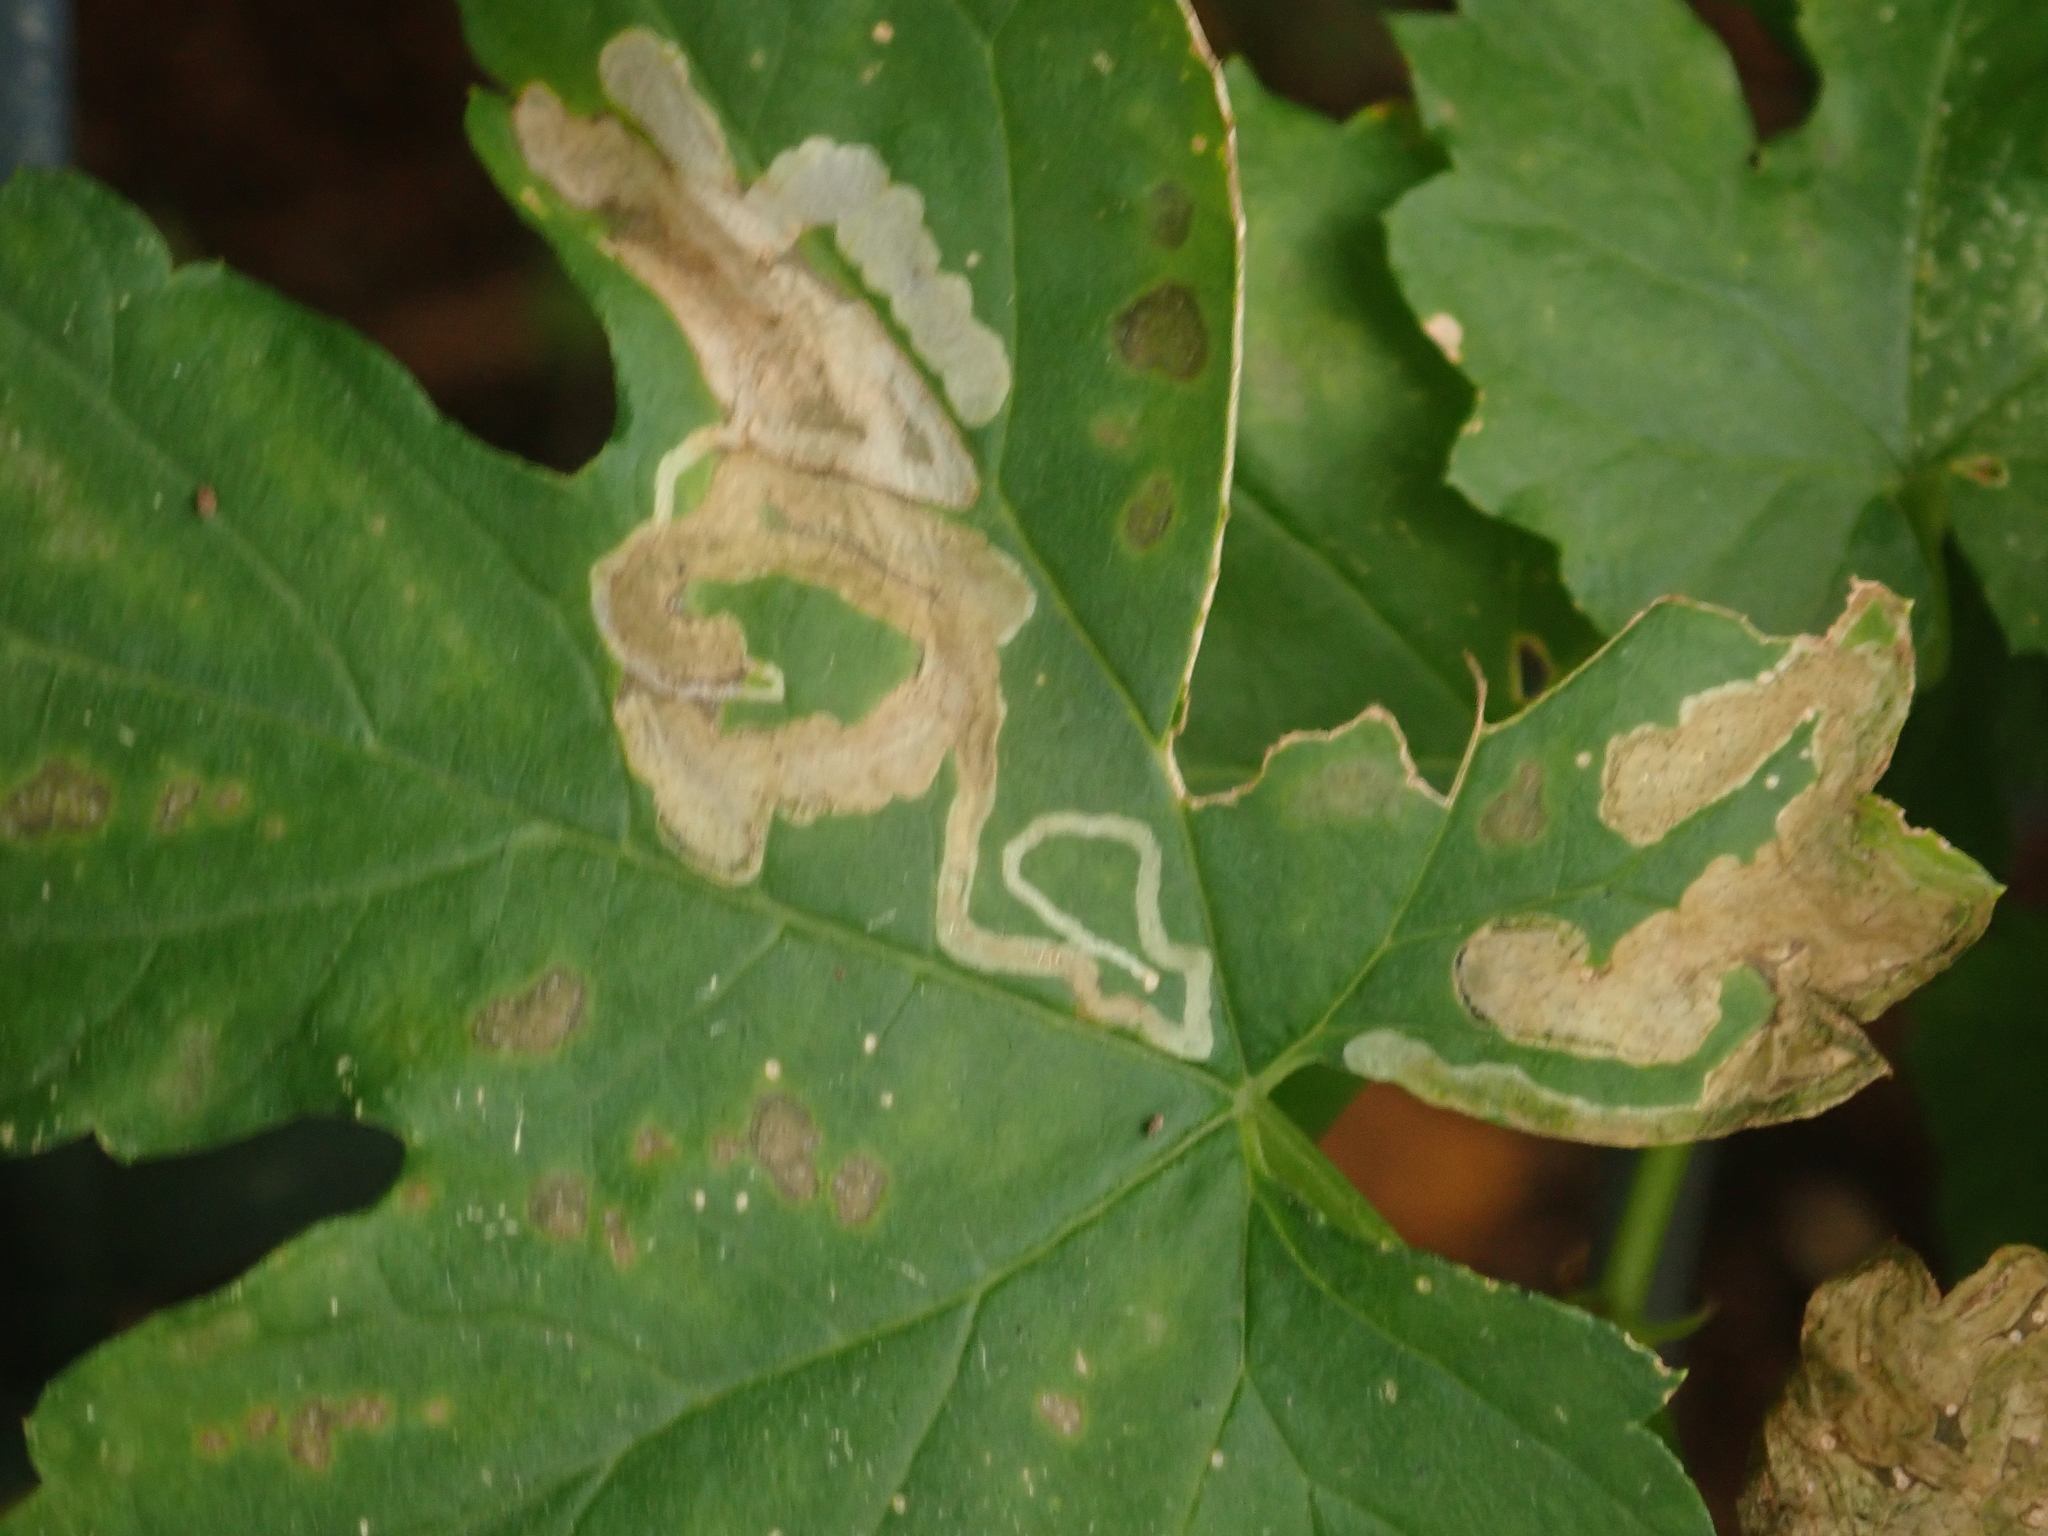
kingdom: Animalia
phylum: Arthropoda
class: Insecta
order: Diptera
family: Agromyzidae
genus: Agromyza
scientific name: Agromyza flaviceps
